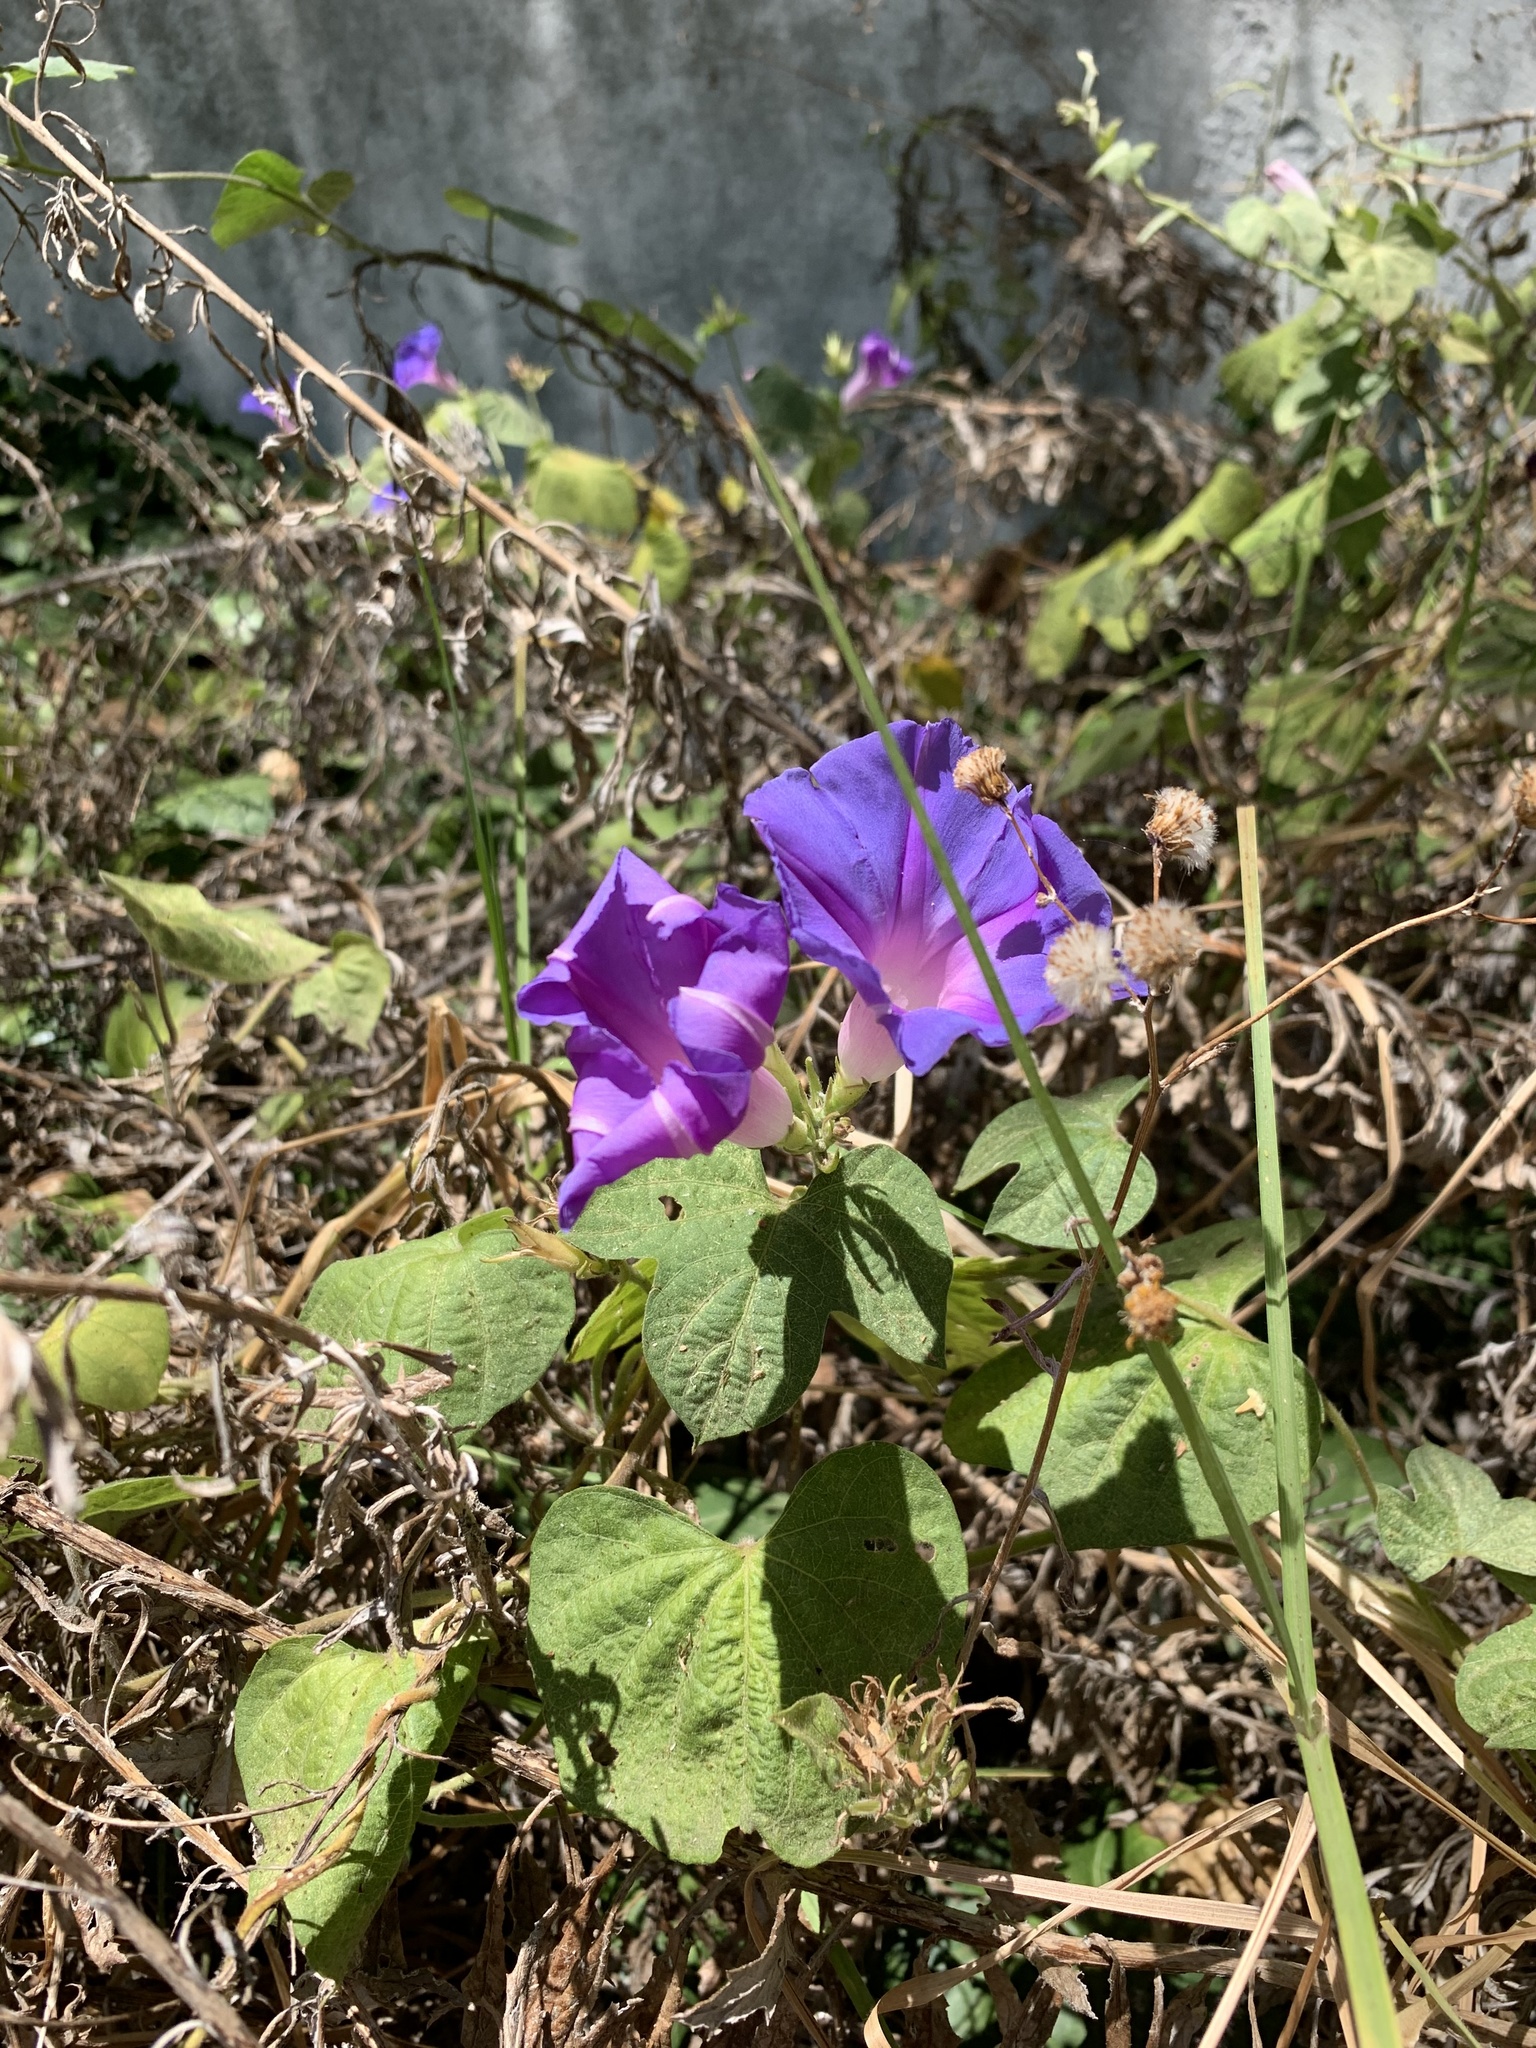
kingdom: Plantae
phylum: Tracheophyta
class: Magnoliopsida
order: Solanales
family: Convolvulaceae
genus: Ipomoea
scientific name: Ipomoea indica
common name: Blue dawnflower
